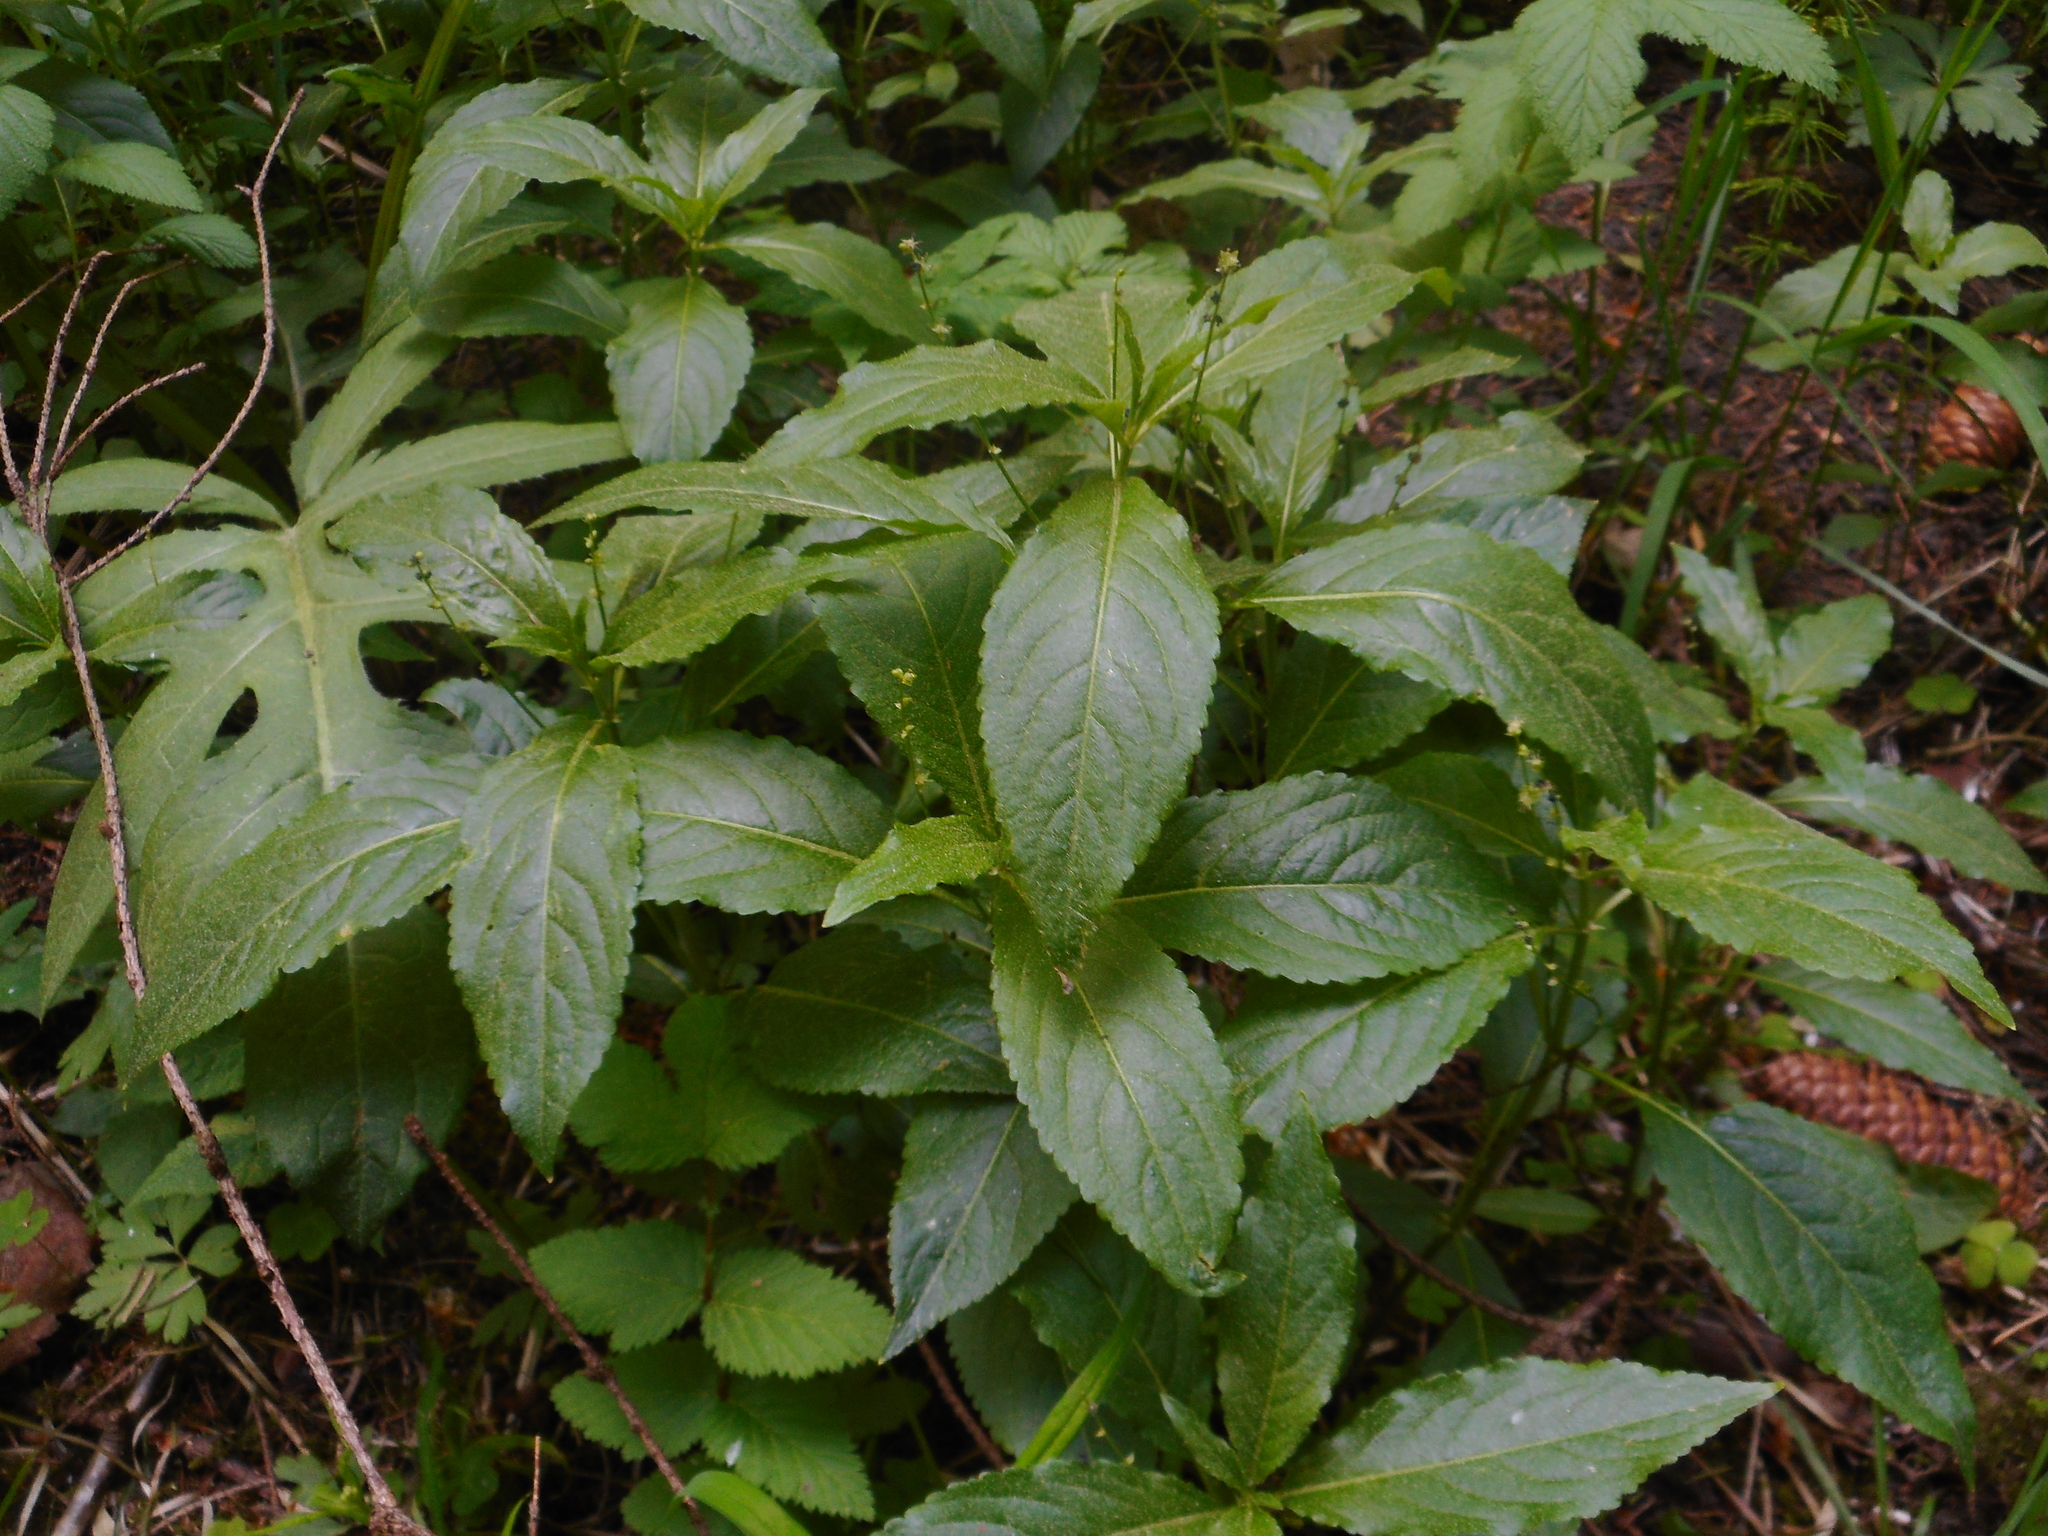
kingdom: Plantae
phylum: Tracheophyta
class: Magnoliopsida
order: Malpighiales
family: Euphorbiaceae
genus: Mercurialis
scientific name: Mercurialis perennis
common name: Dog mercury
